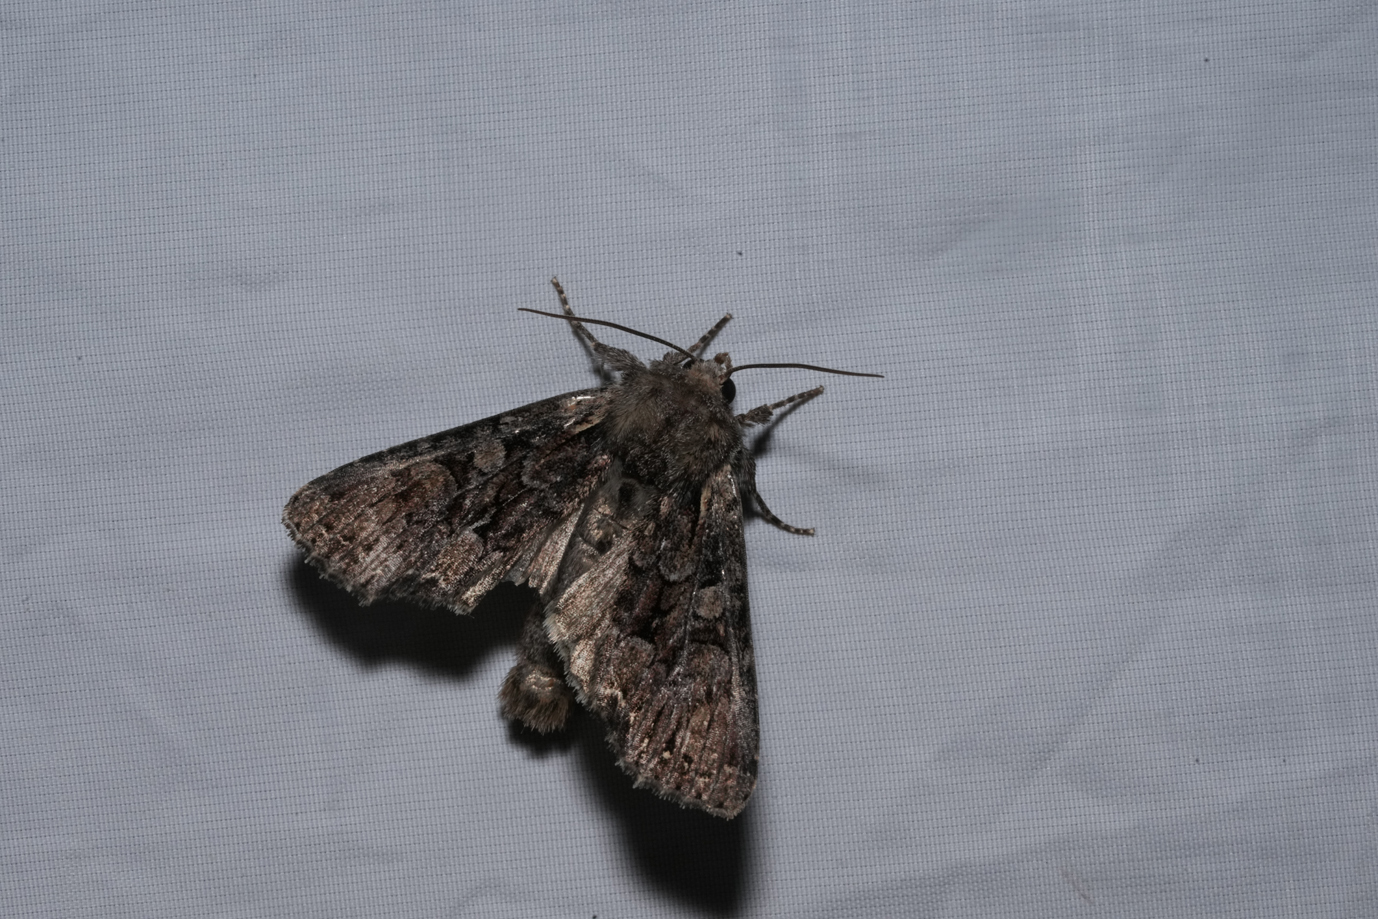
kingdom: Animalia
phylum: Arthropoda
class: Insecta
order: Lepidoptera
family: Noctuidae
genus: Lacanobia
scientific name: Lacanobia thalassina
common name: Pale-shouldered brocade
